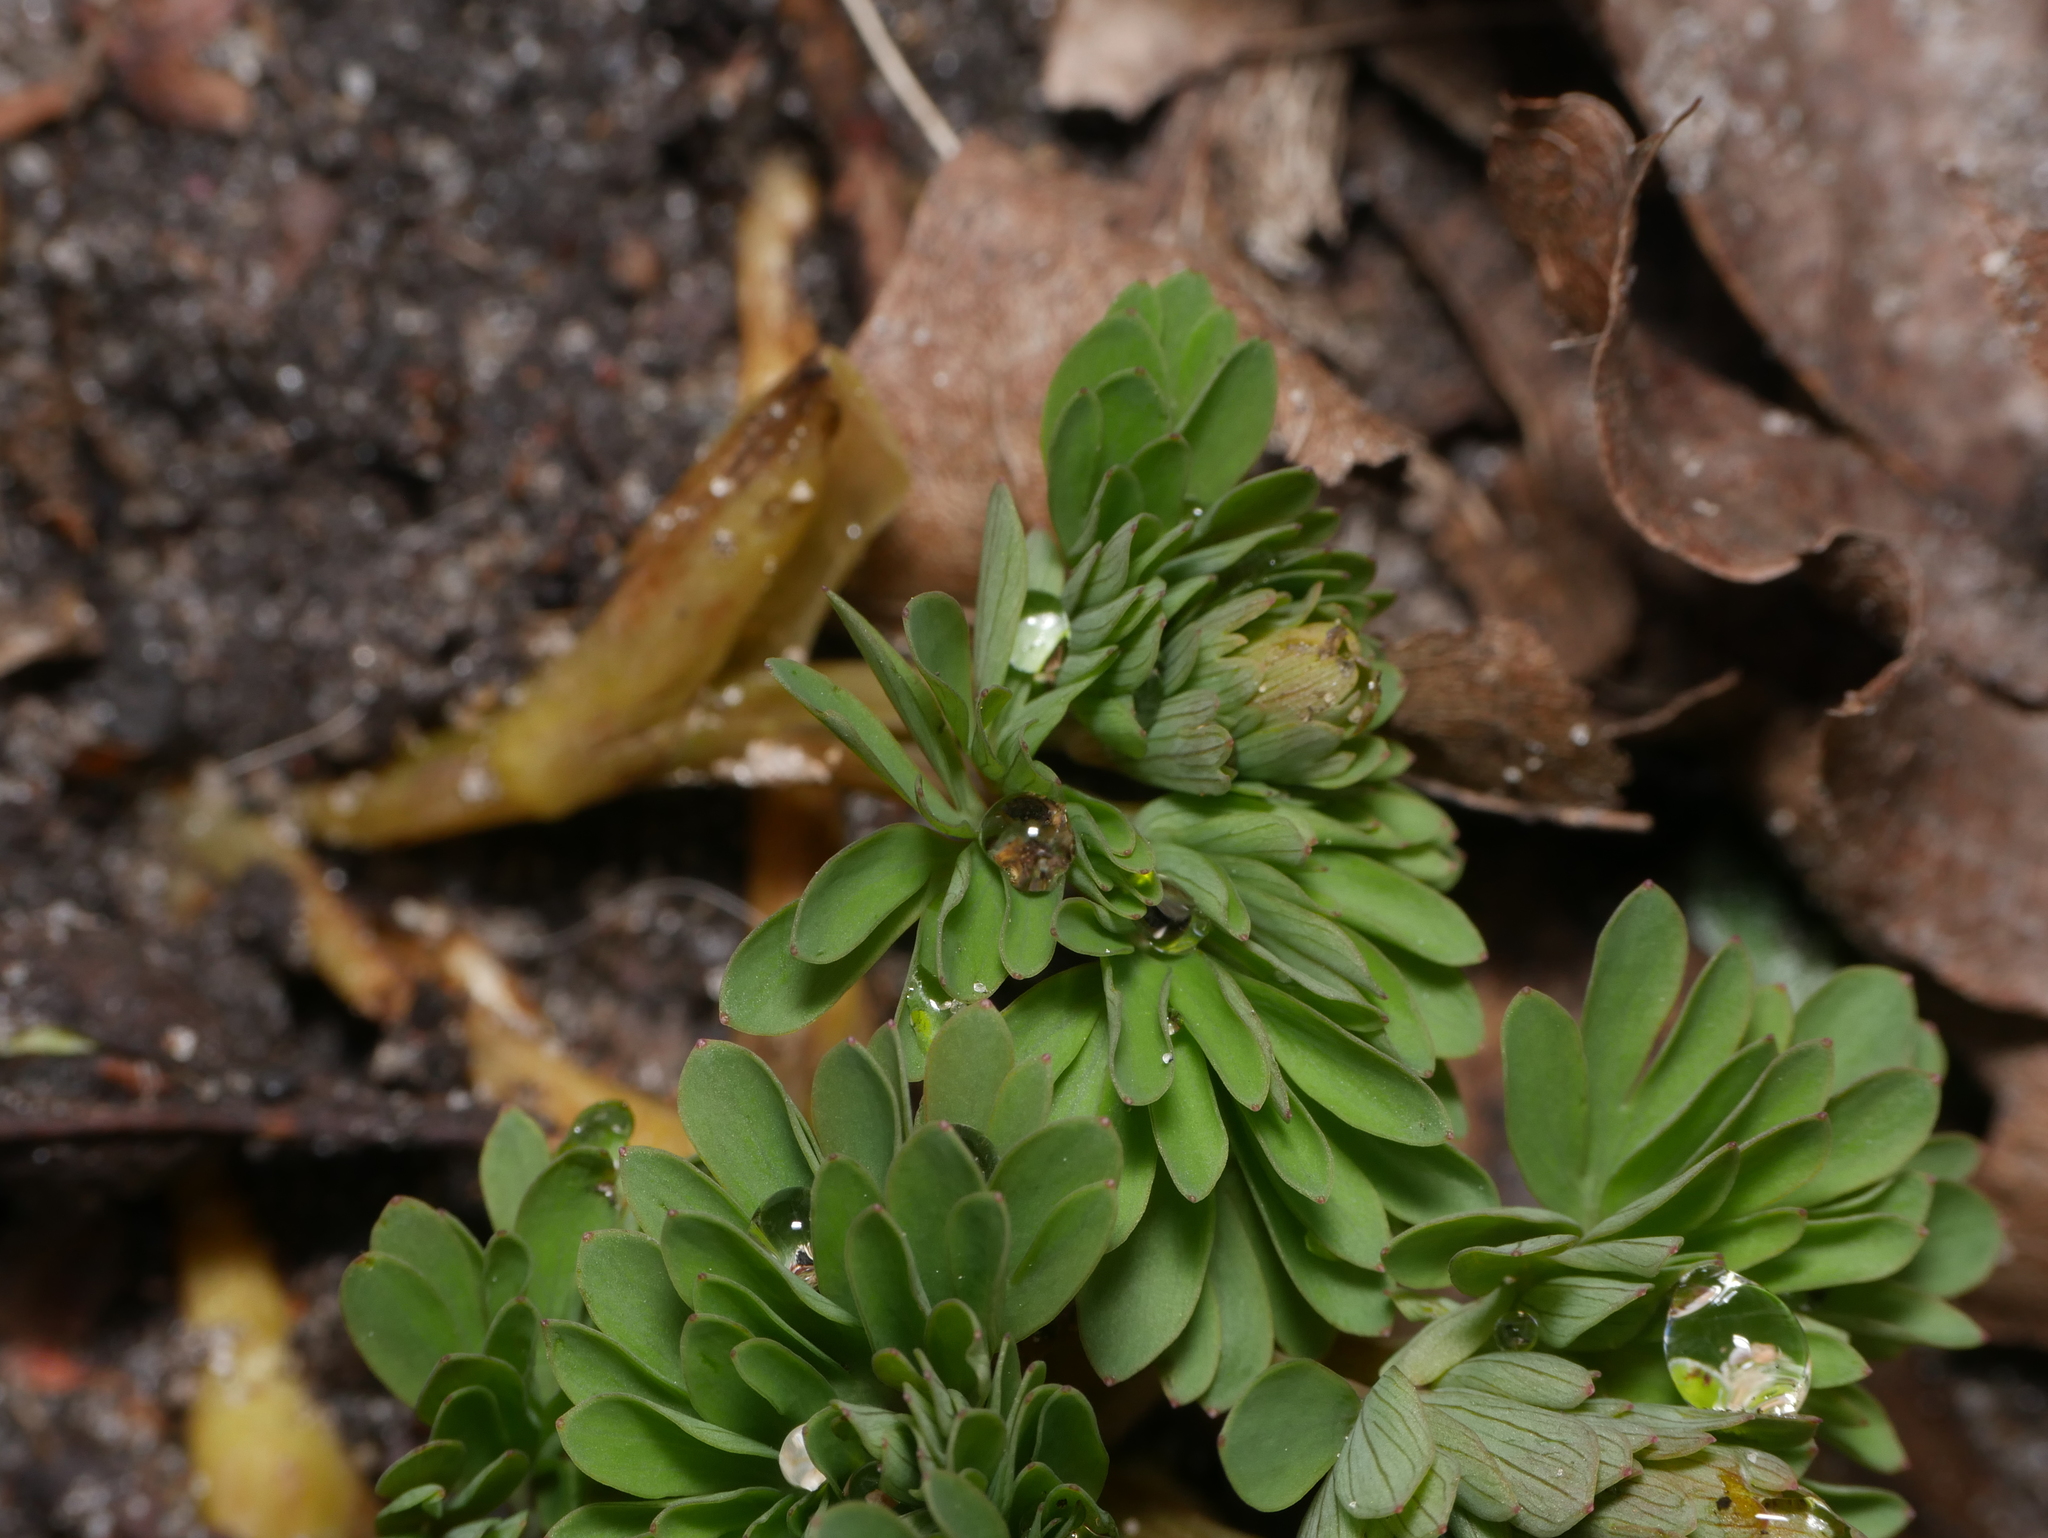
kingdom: Plantae
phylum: Tracheophyta
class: Magnoliopsida
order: Ranunculales
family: Papaveraceae
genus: Corydalis
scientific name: Corydalis solida
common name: Bird-in-a-bush
